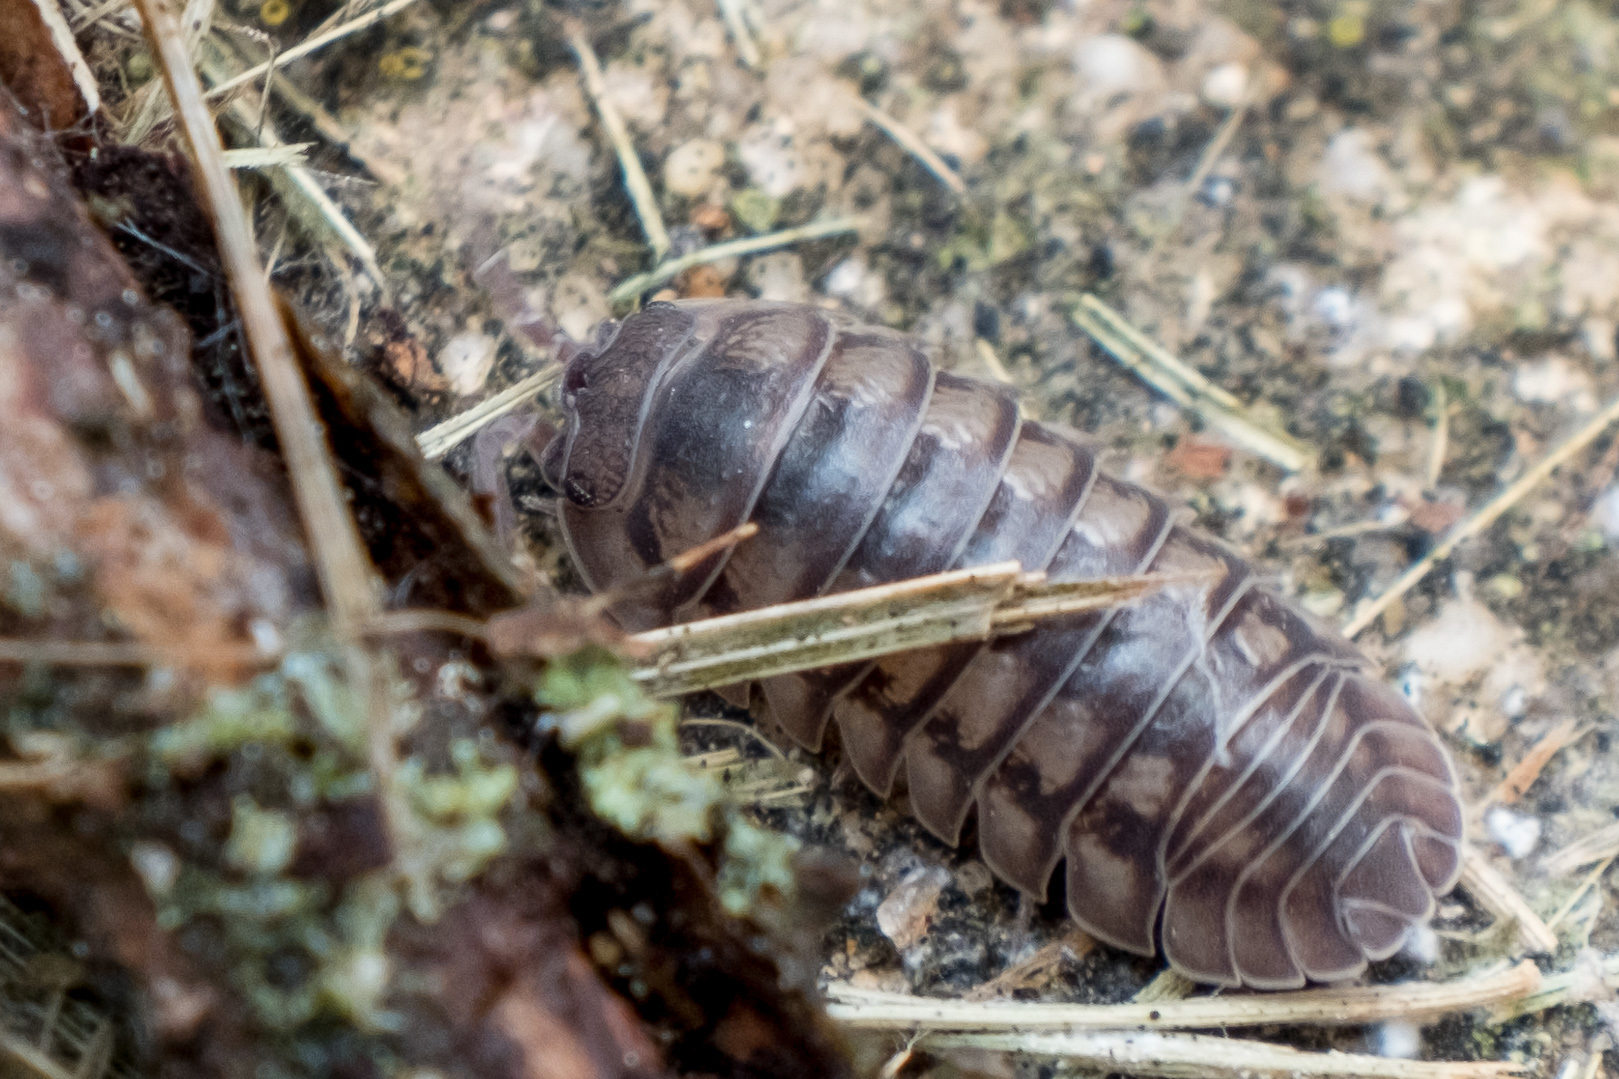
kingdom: Animalia
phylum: Arthropoda
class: Malacostraca
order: Isopoda
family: Armadillidiidae
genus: Armadillidium
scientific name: Armadillidium nasatum
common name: Isopod
